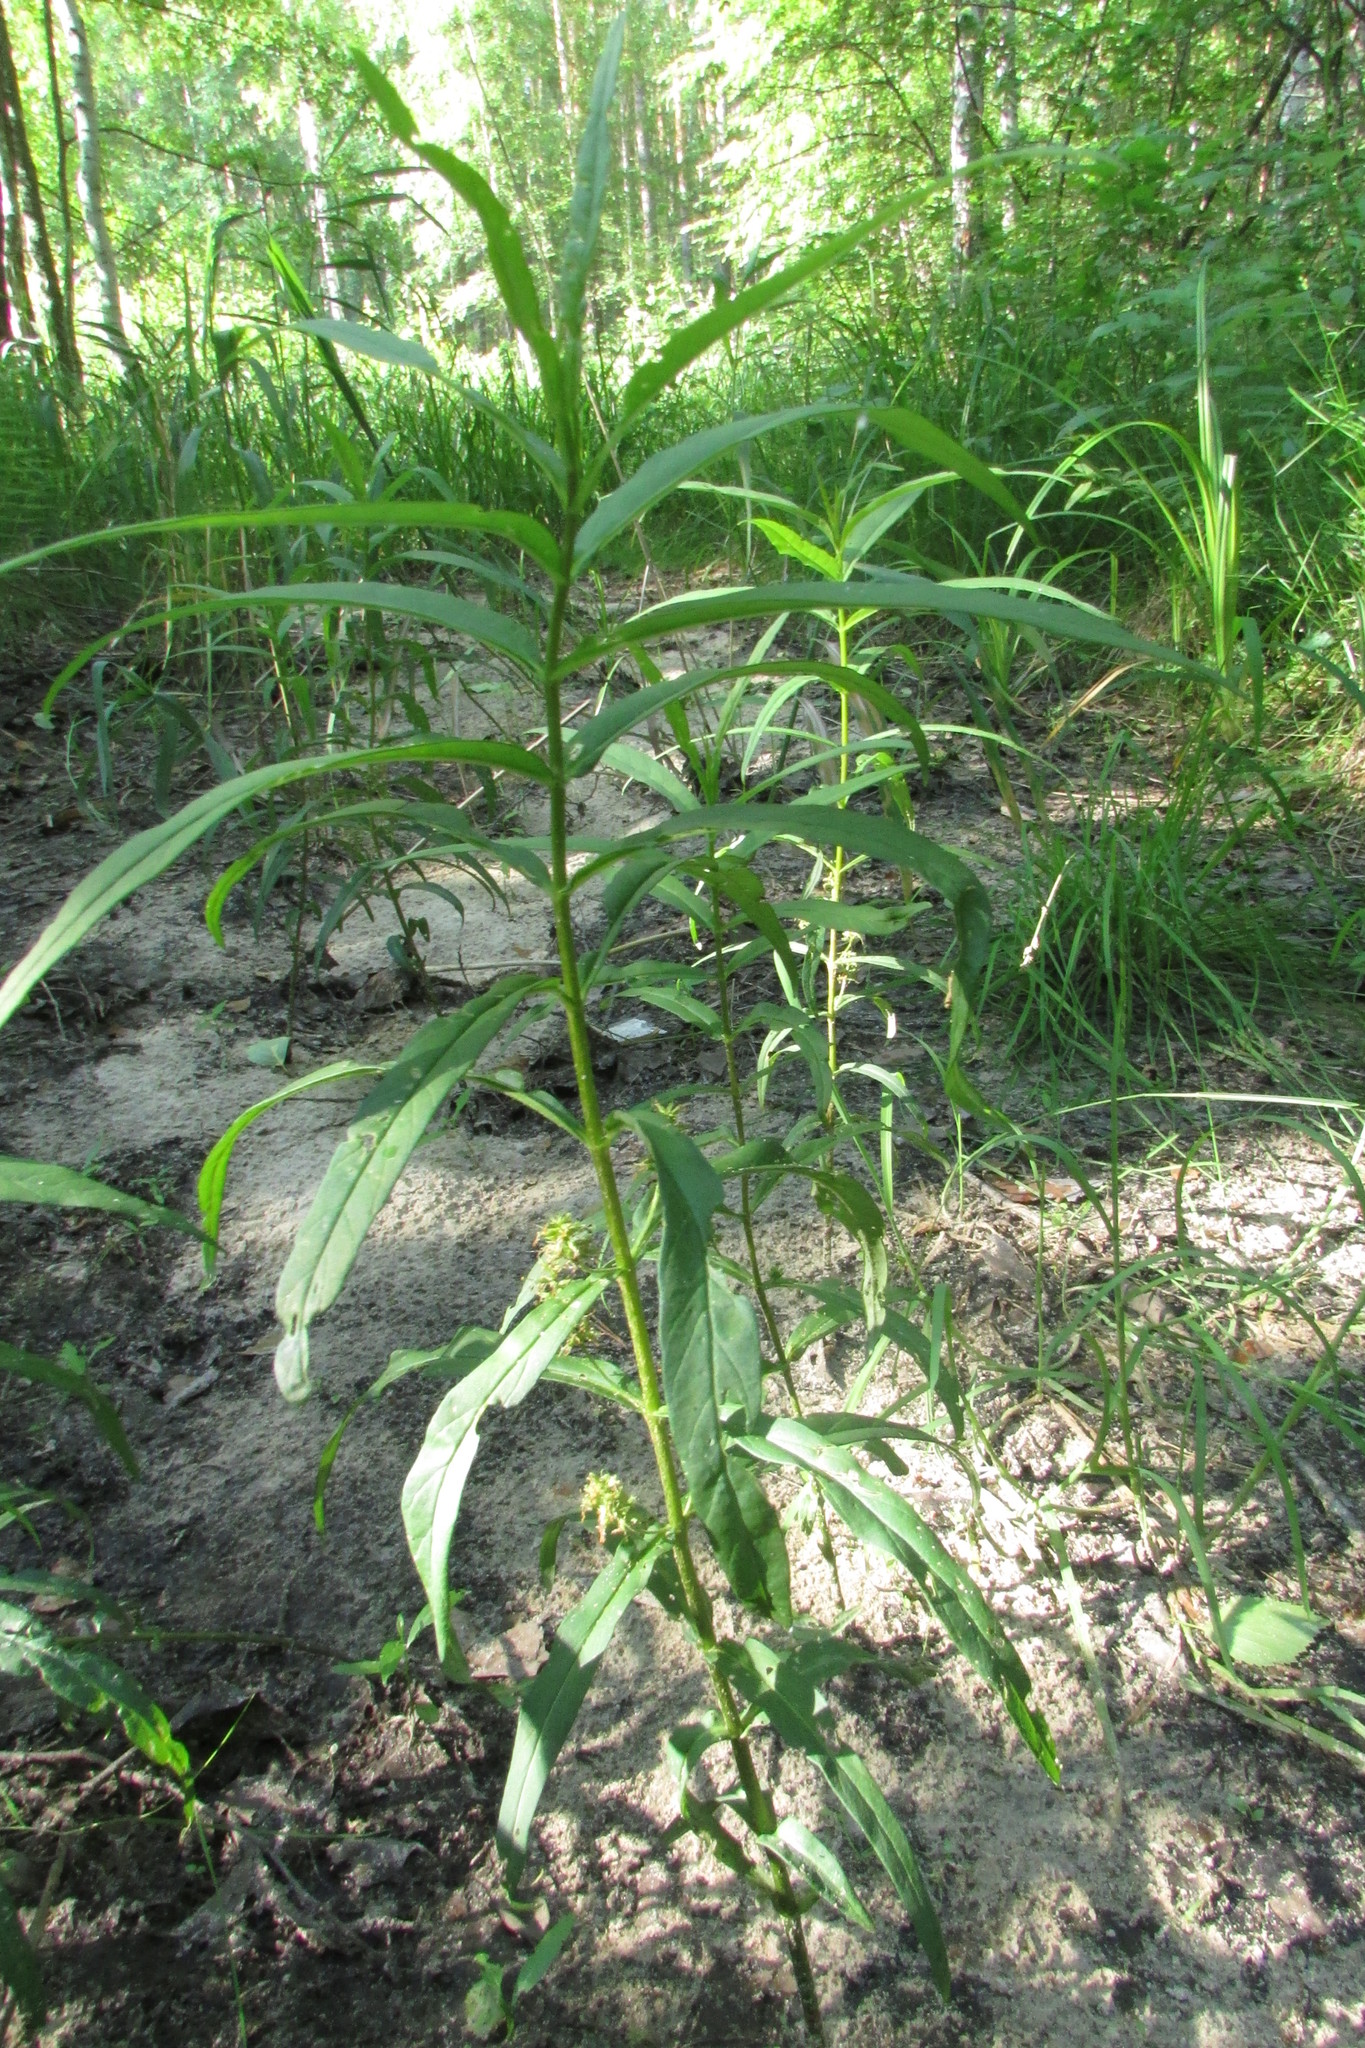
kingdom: Plantae
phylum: Tracheophyta
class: Magnoliopsida
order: Ericales
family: Primulaceae
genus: Lysimachia
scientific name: Lysimachia thyrsiflora
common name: Tufted loosestrife
